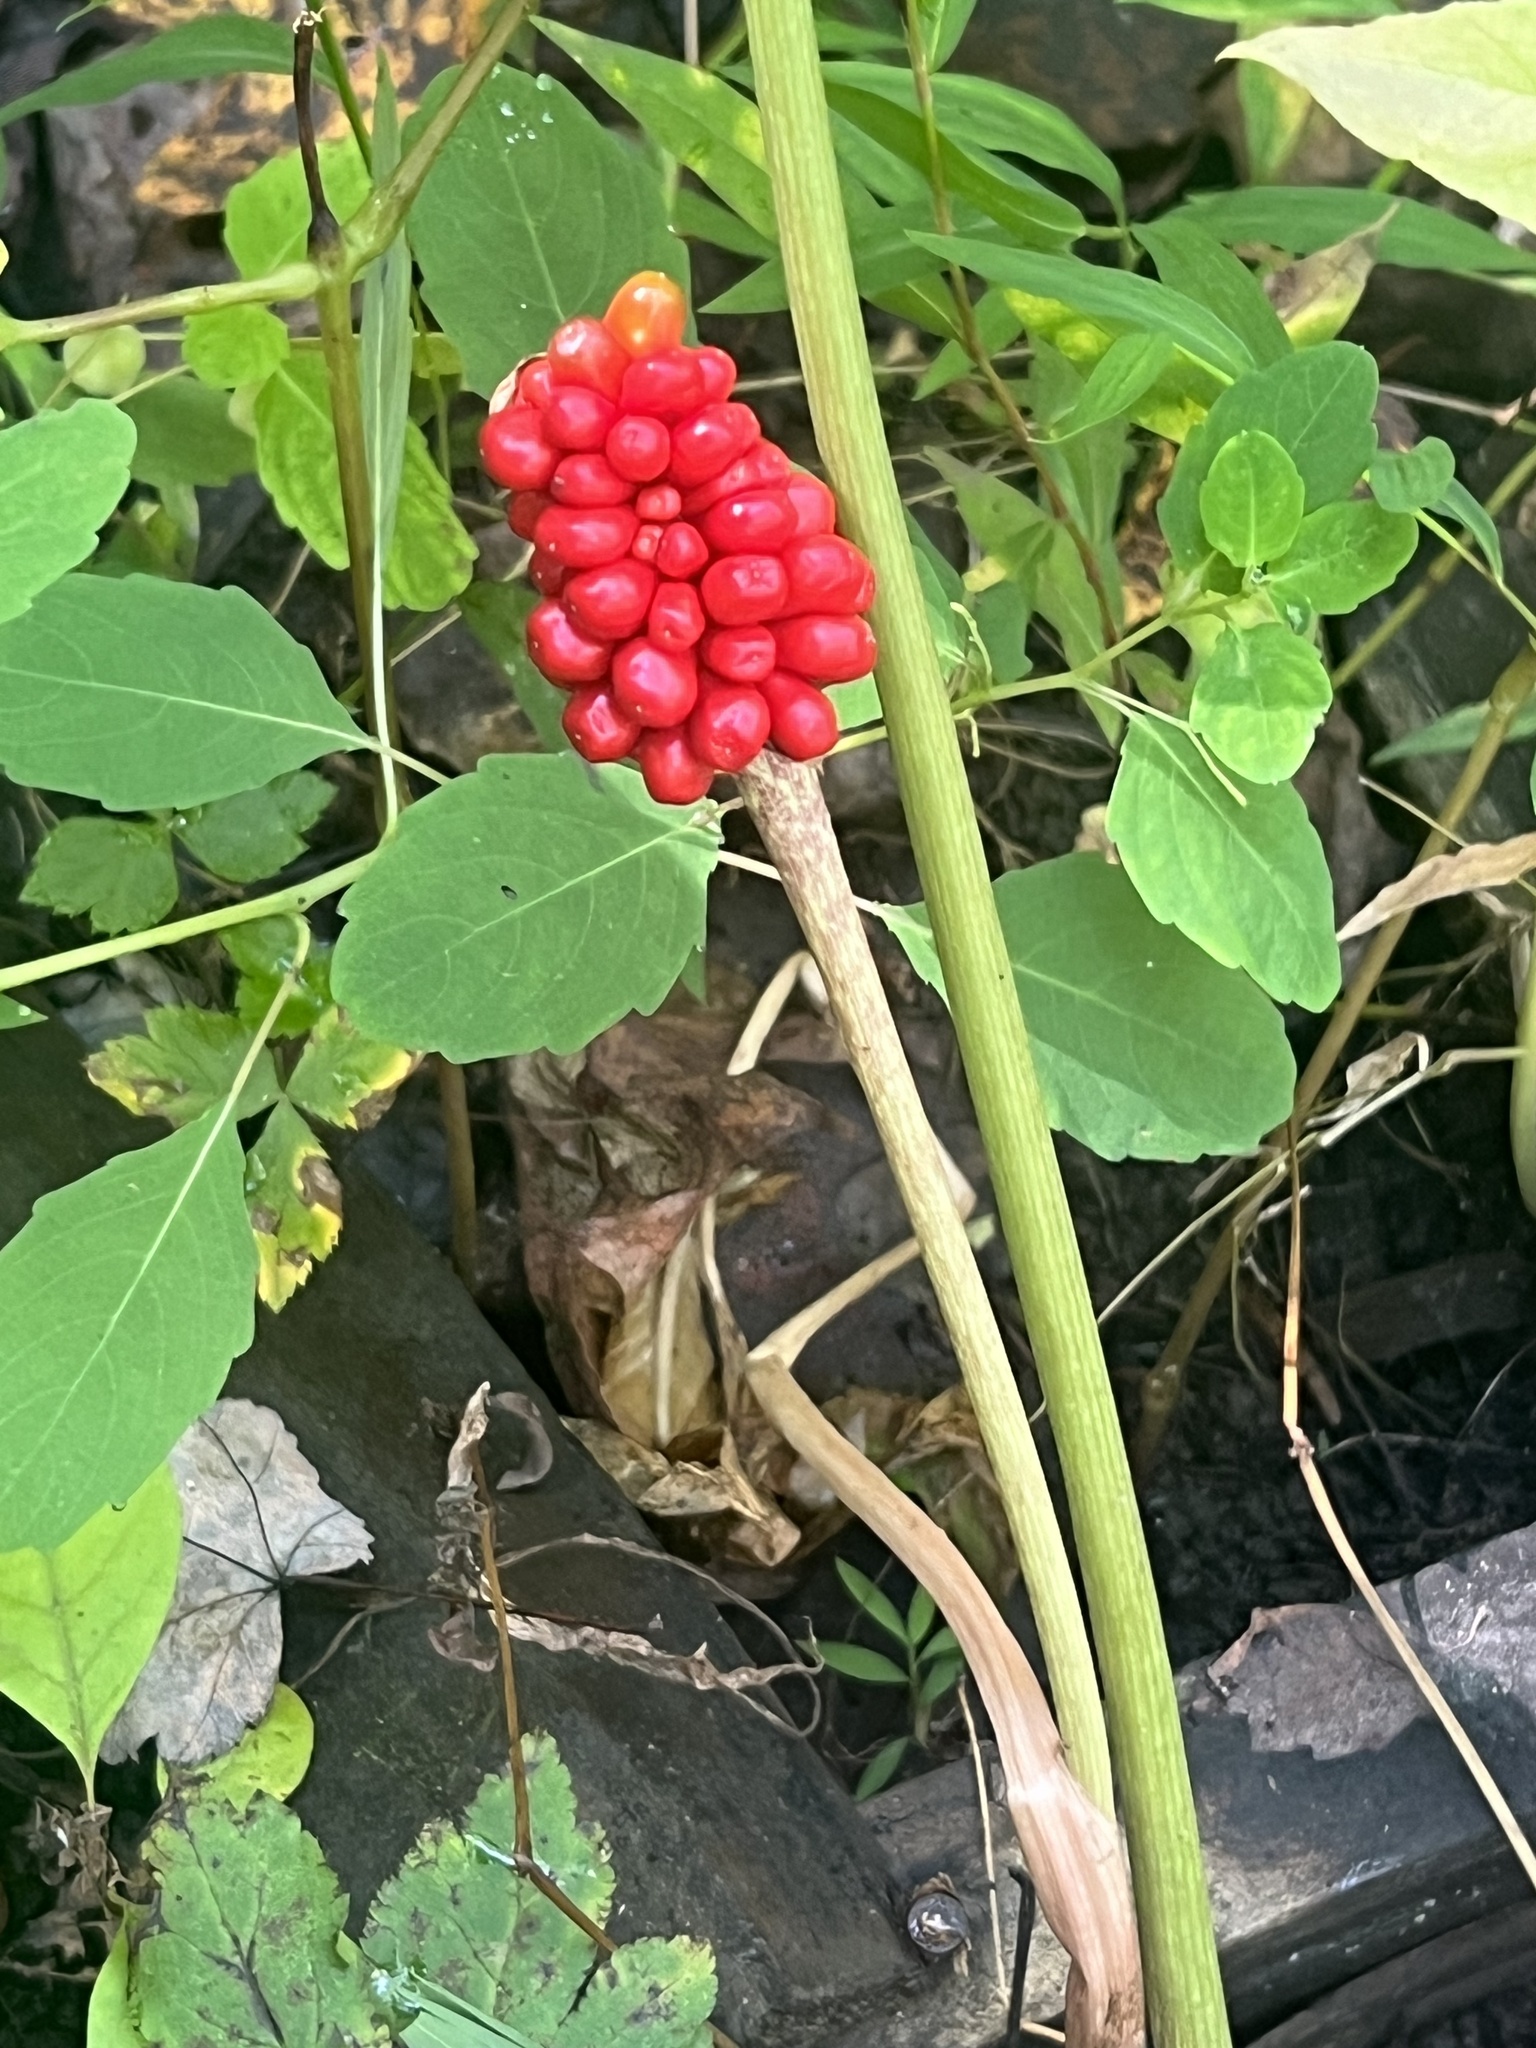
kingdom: Plantae
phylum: Tracheophyta
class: Liliopsida
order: Alismatales
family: Araceae
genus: Arisaema
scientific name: Arisaema triphyllum
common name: Jack-in-the-pulpit
